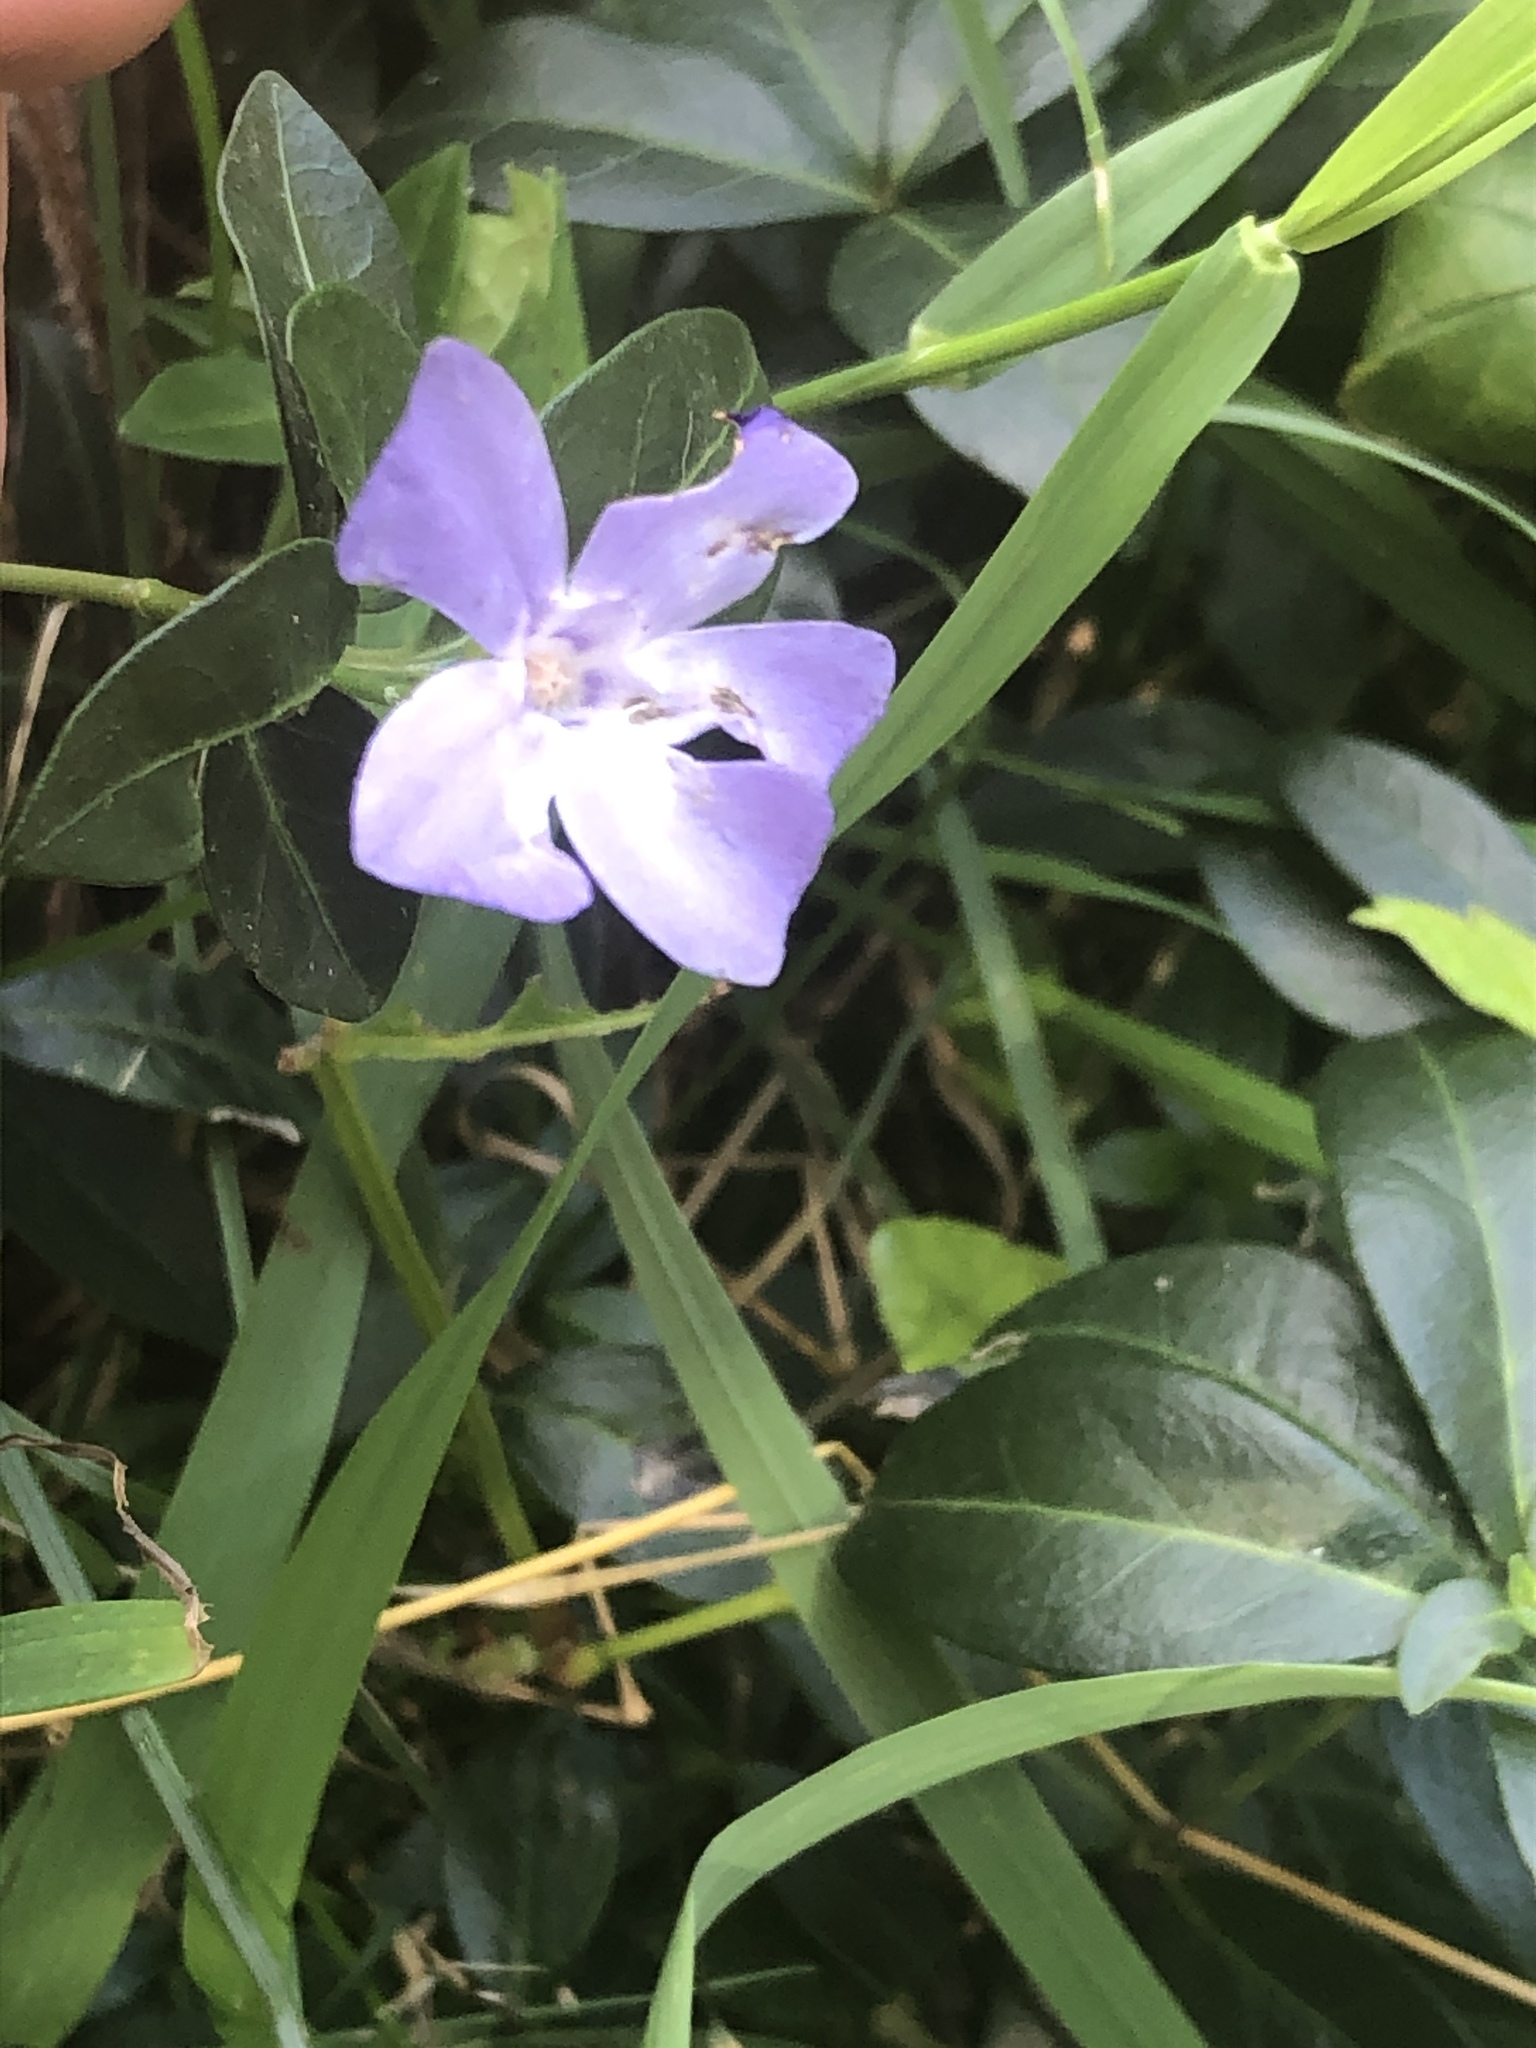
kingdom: Plantae
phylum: Tracheophyta
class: Magnoliopsida
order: Gentianales
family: Apocynaceae
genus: Vinca
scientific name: Vinca minor
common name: Lesser periwinkle
